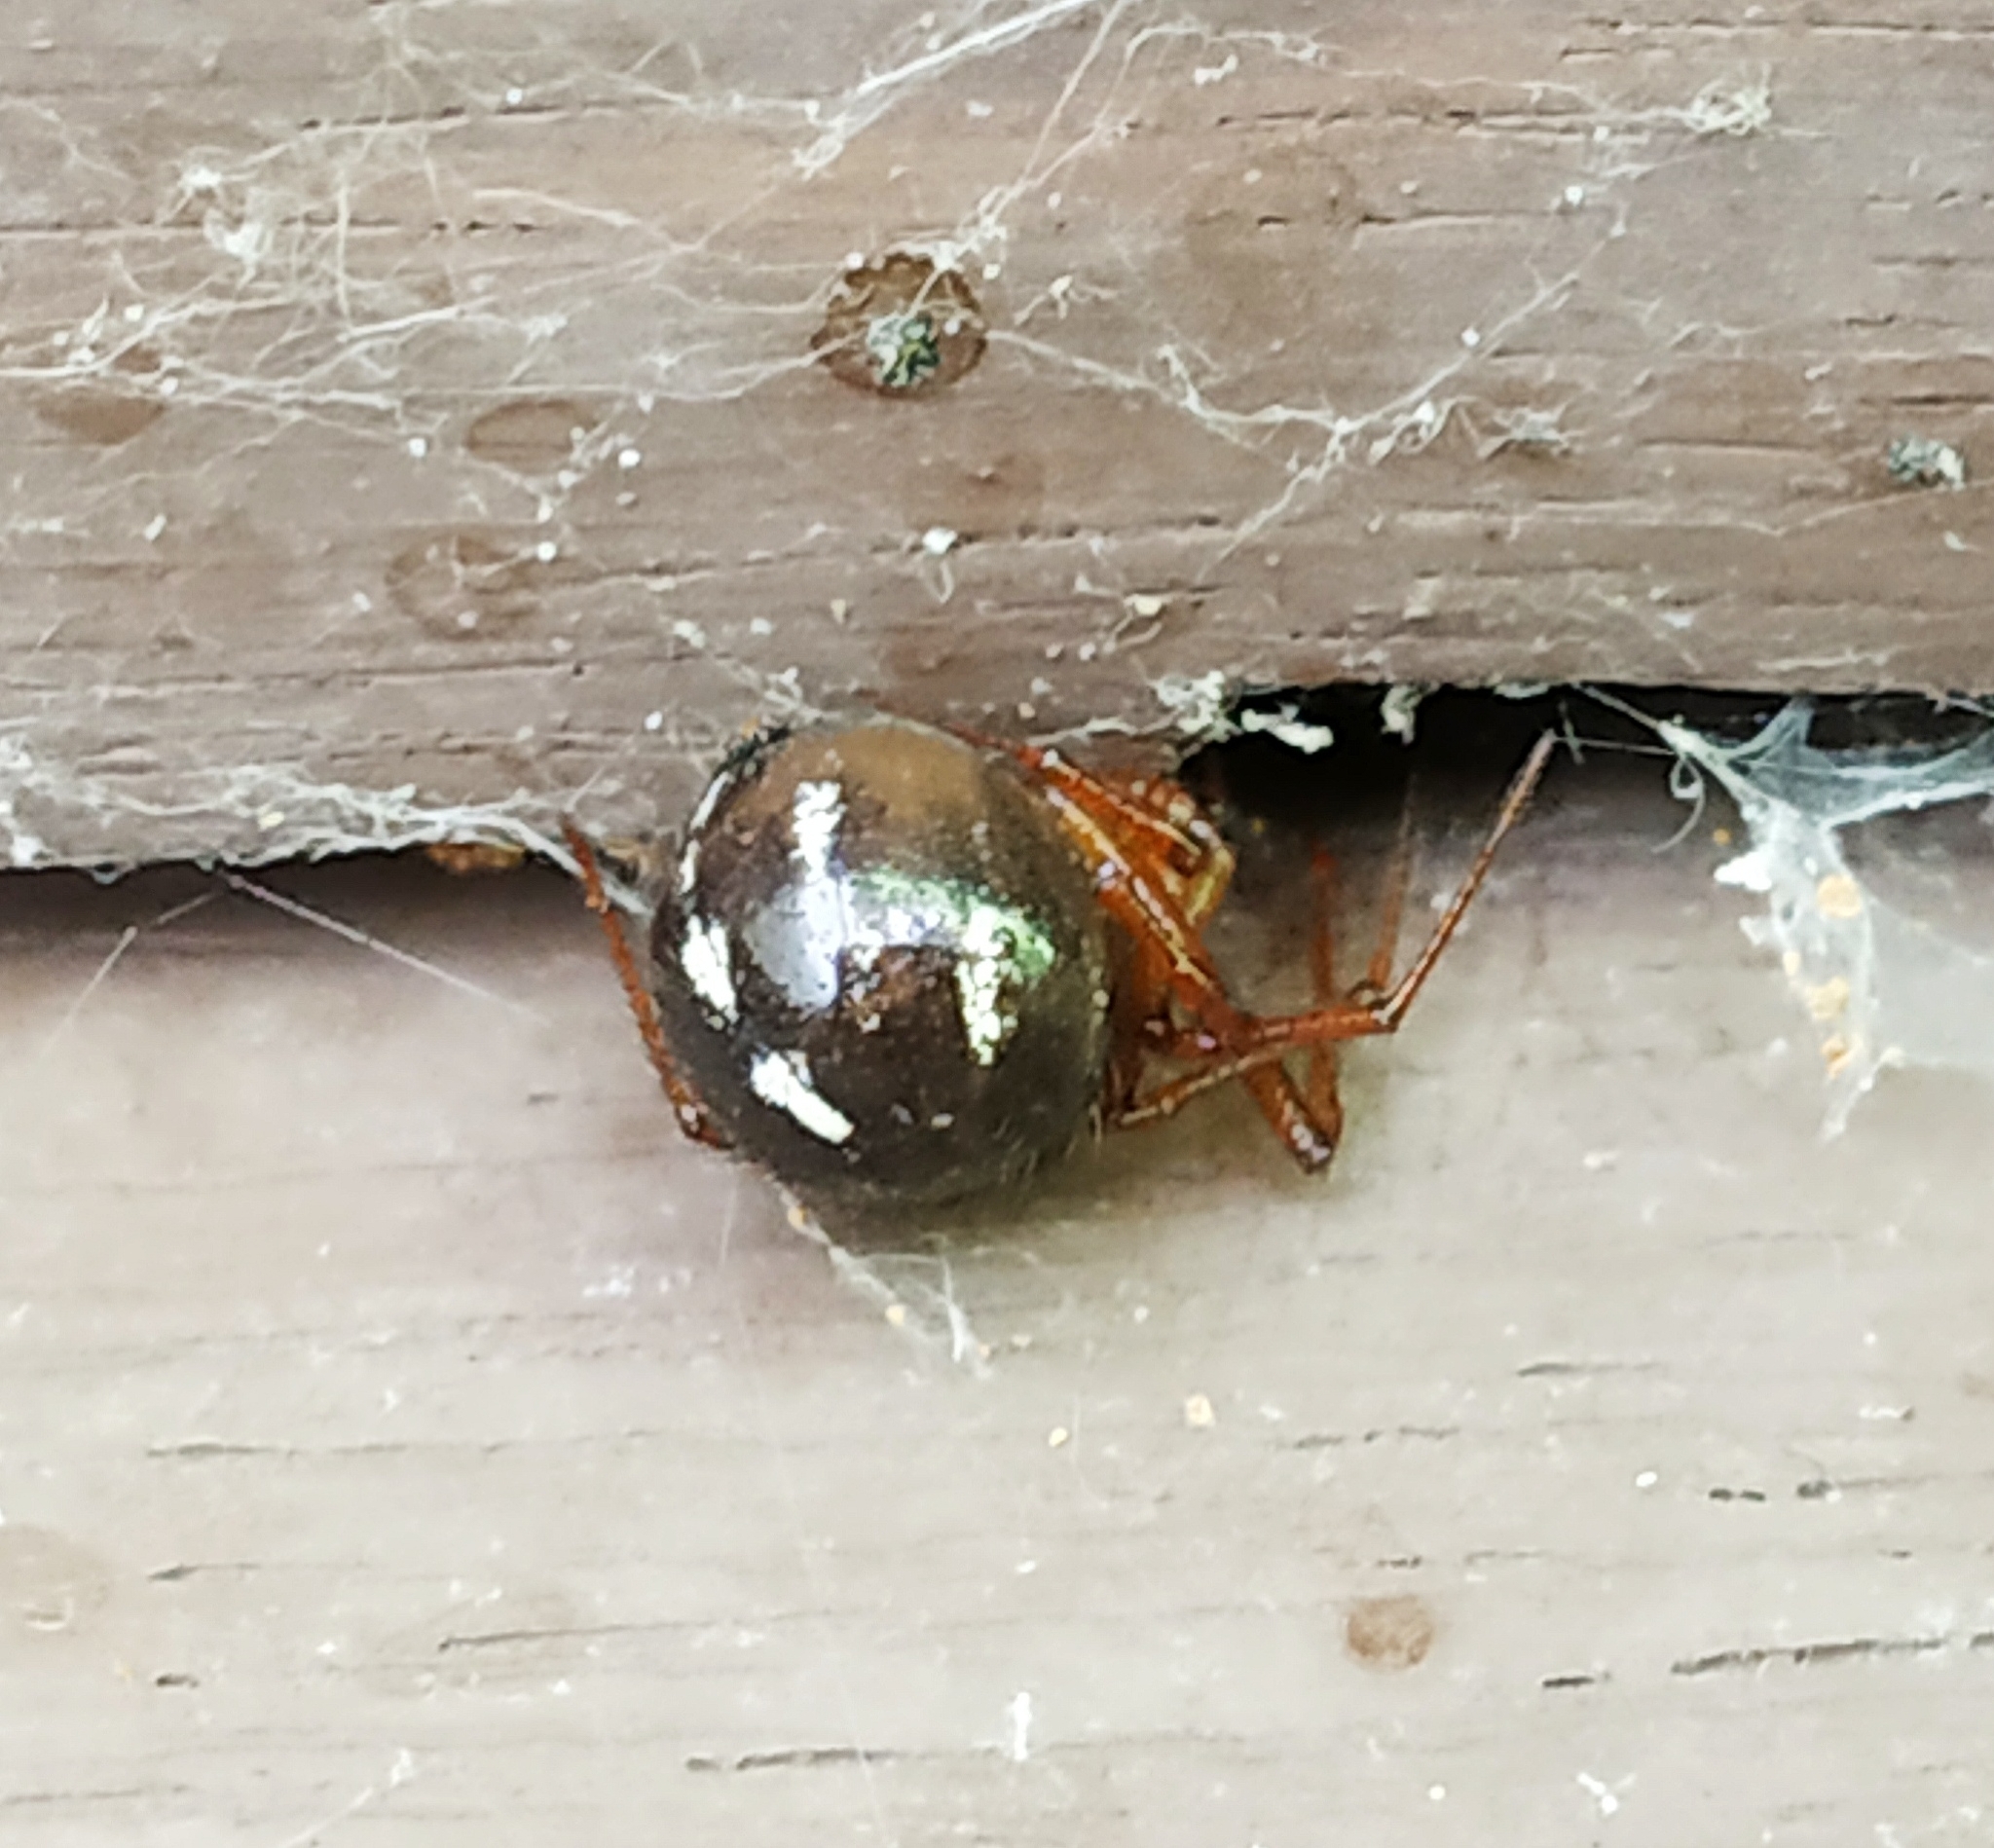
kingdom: Animalia
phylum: Arthropoda
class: Arachnida
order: Araneae
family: Theridiidae
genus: Nesticodes
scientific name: Nesticodes rufipes
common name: Cobweb spiders
